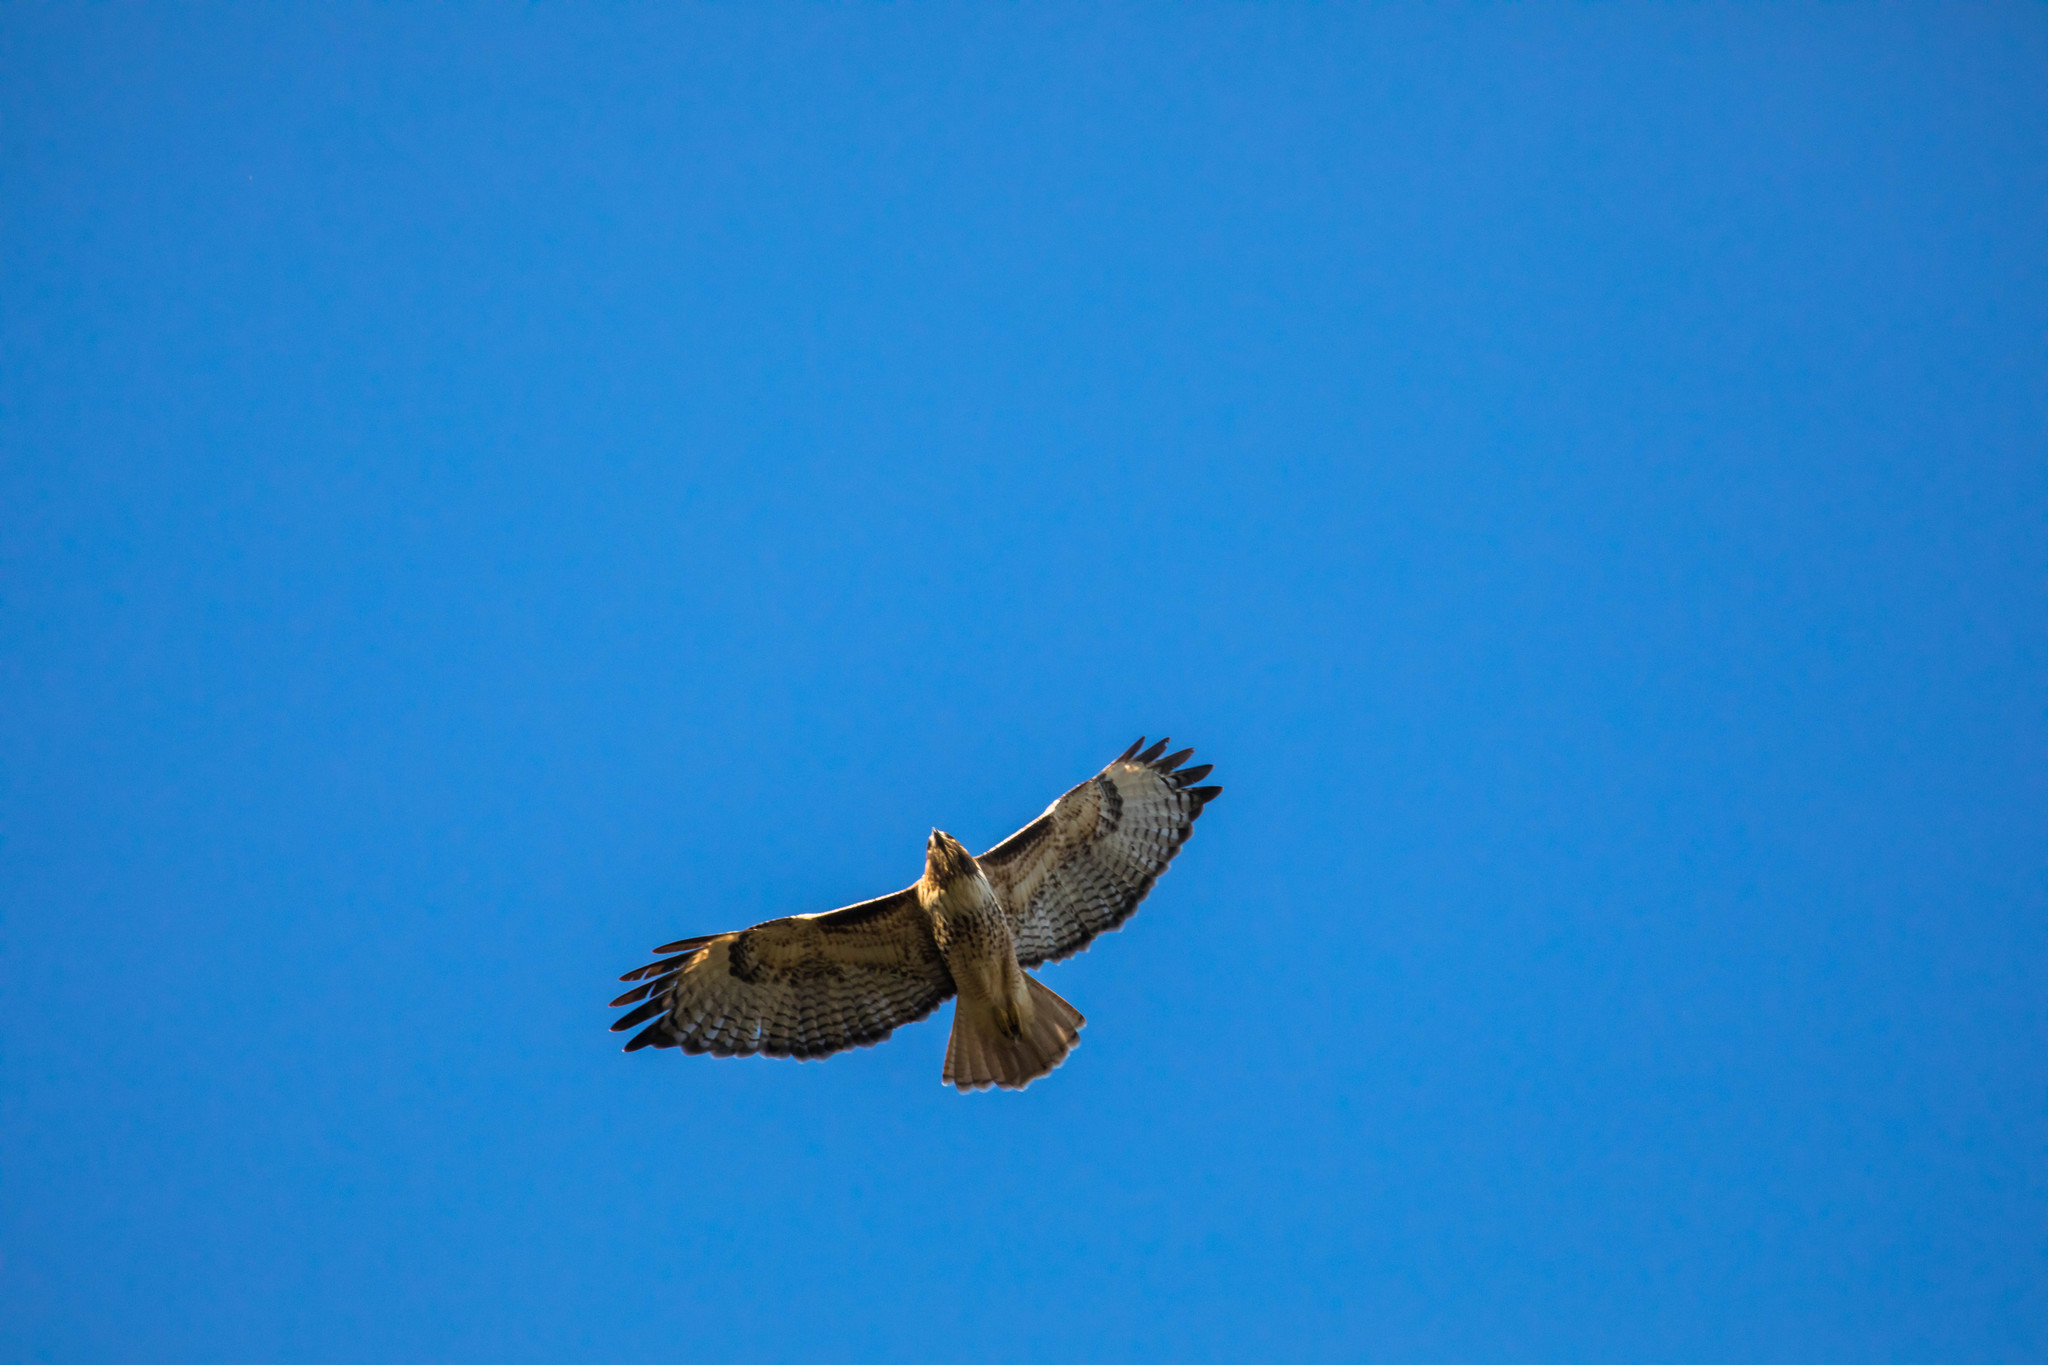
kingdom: Animalia
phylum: Chordata
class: Aves
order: Accipitriformes
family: Accipitridae
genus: Buteo
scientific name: Buteo jamaicensis
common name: Red-tailed hawk
